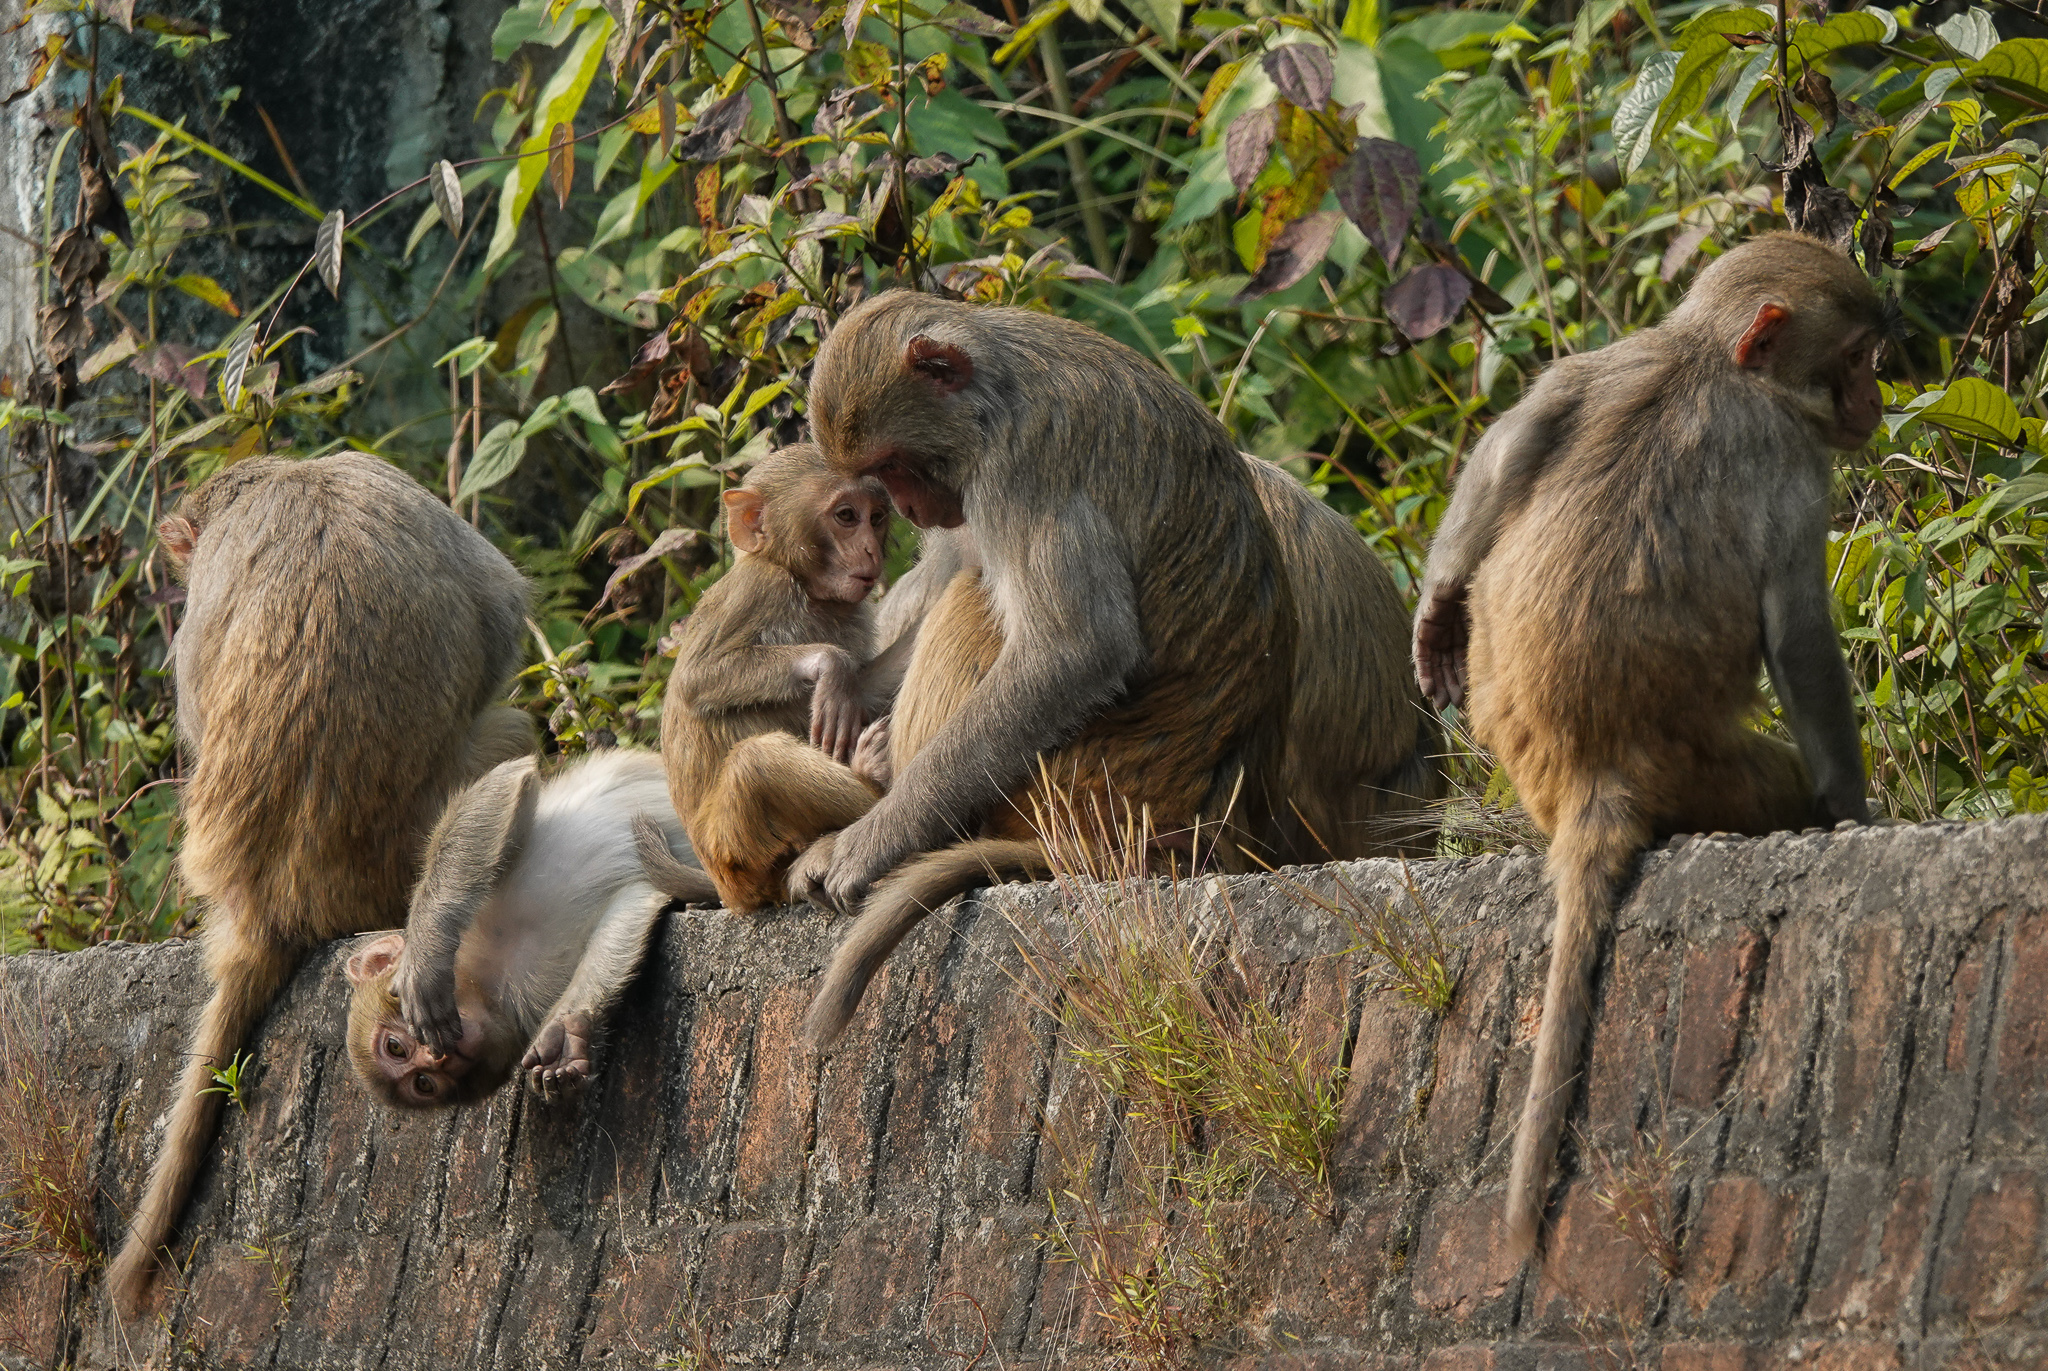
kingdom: Animalia
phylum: Chordata
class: Mammalia
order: Primates
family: Cercopithecidae
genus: Macaca
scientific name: Macaca mulatta
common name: Rhesus monkey
